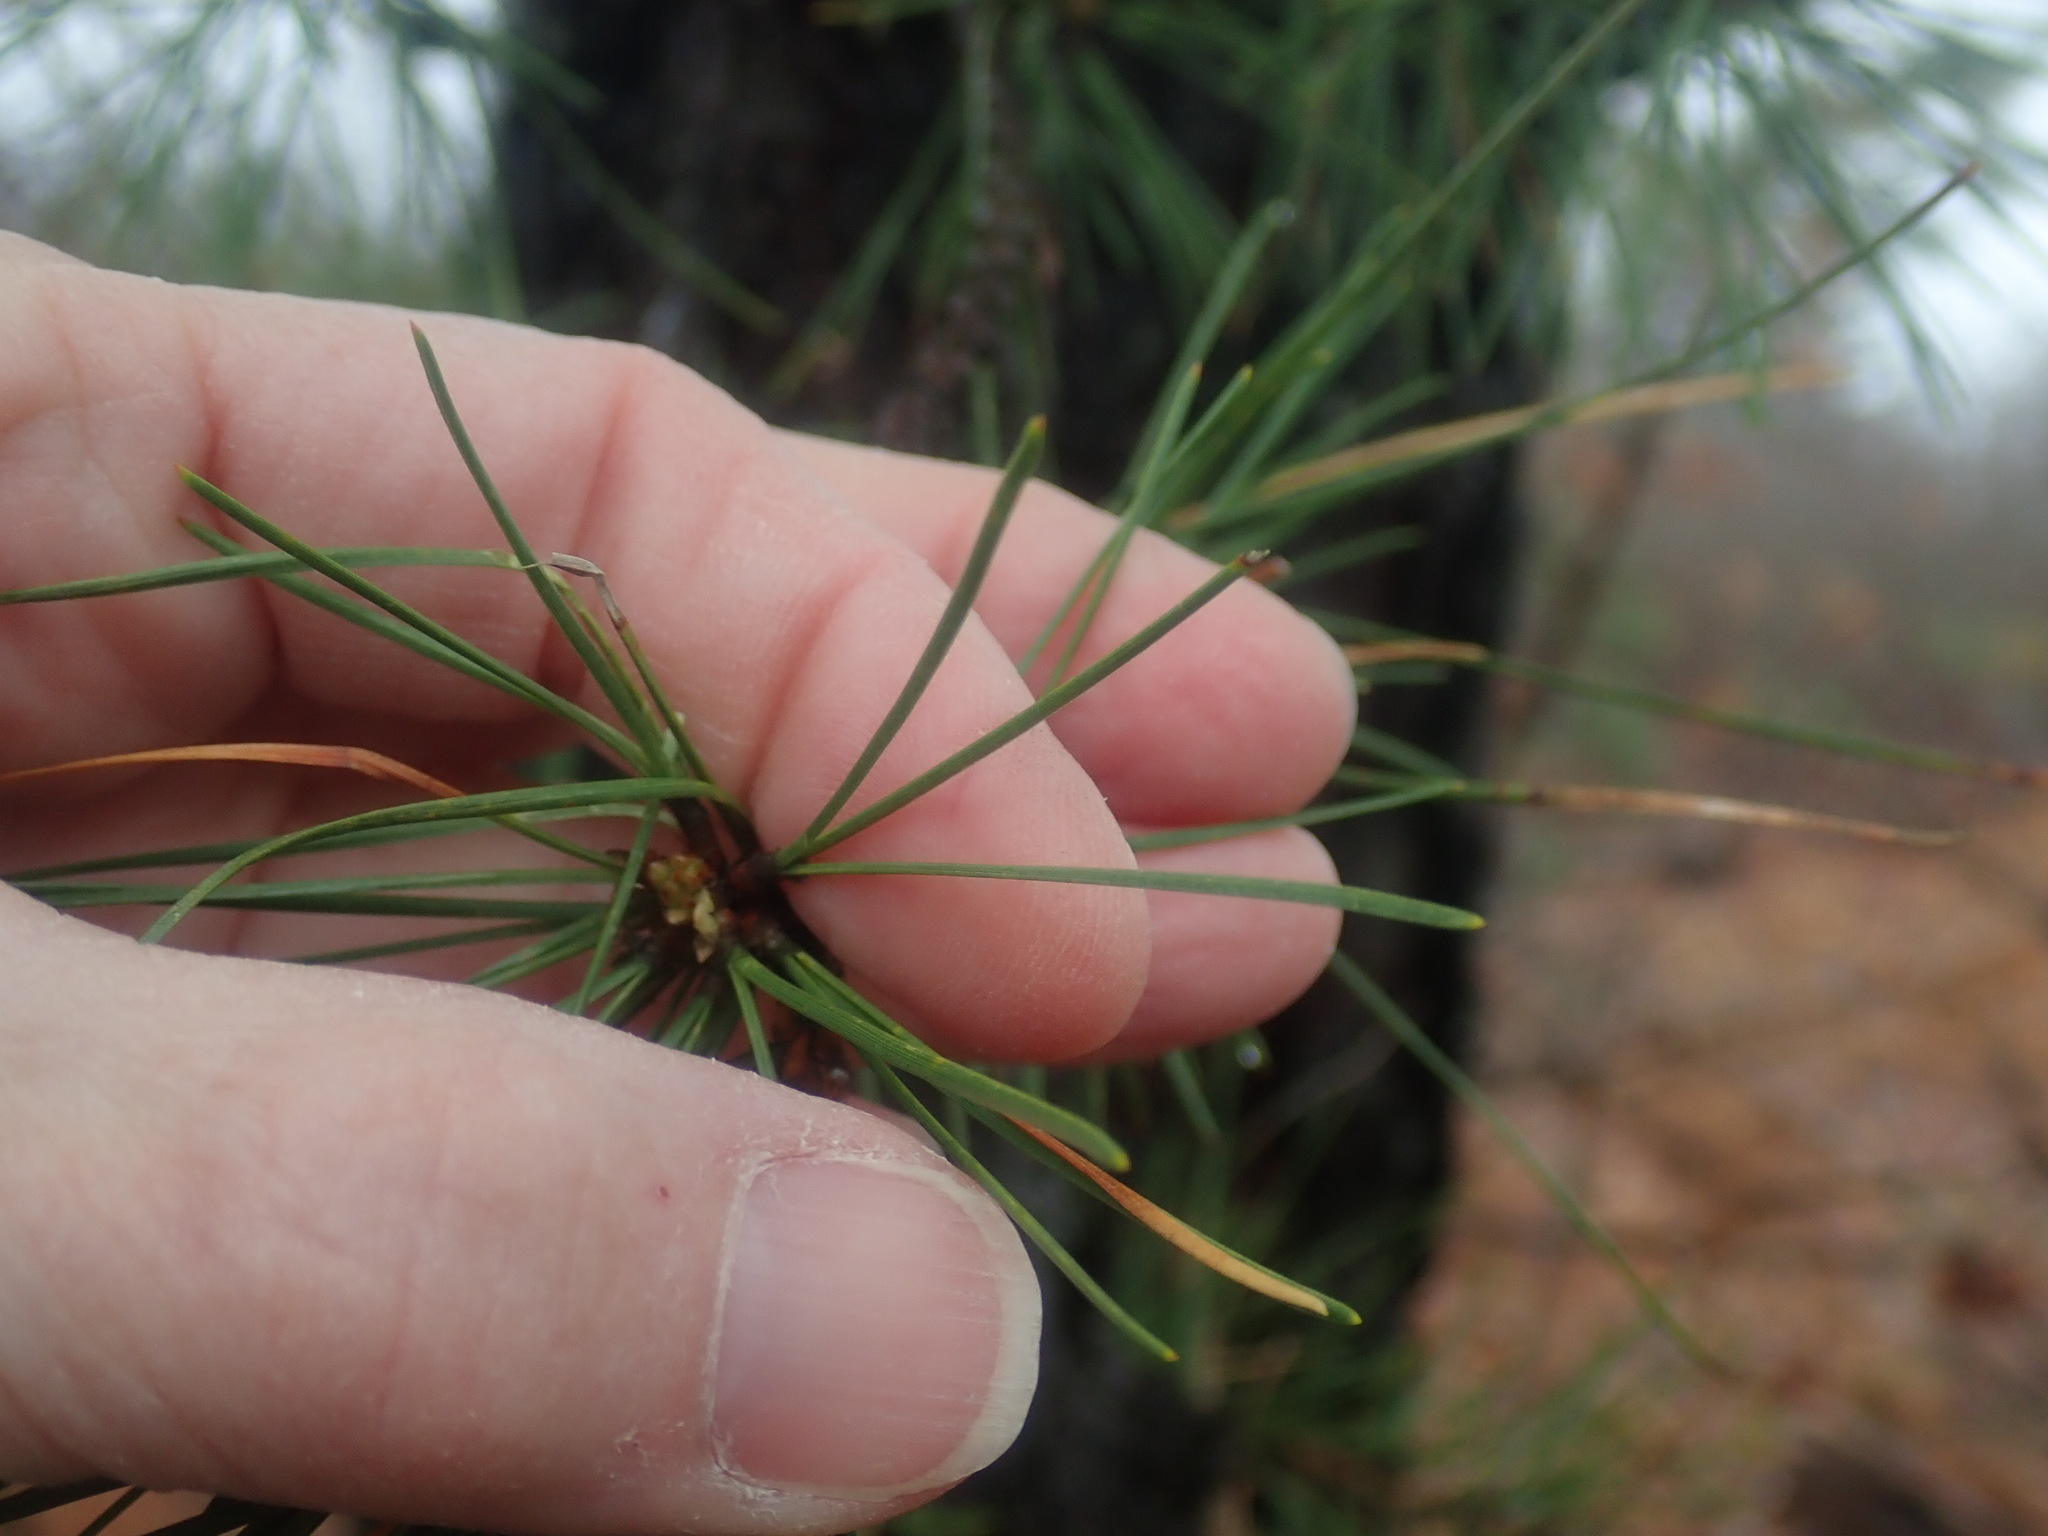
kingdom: Plantae
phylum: Tracheophyta
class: Pinopsida
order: Pinales
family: Pinaceae
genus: Pinus
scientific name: Pinus rigida
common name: Pitch pine
